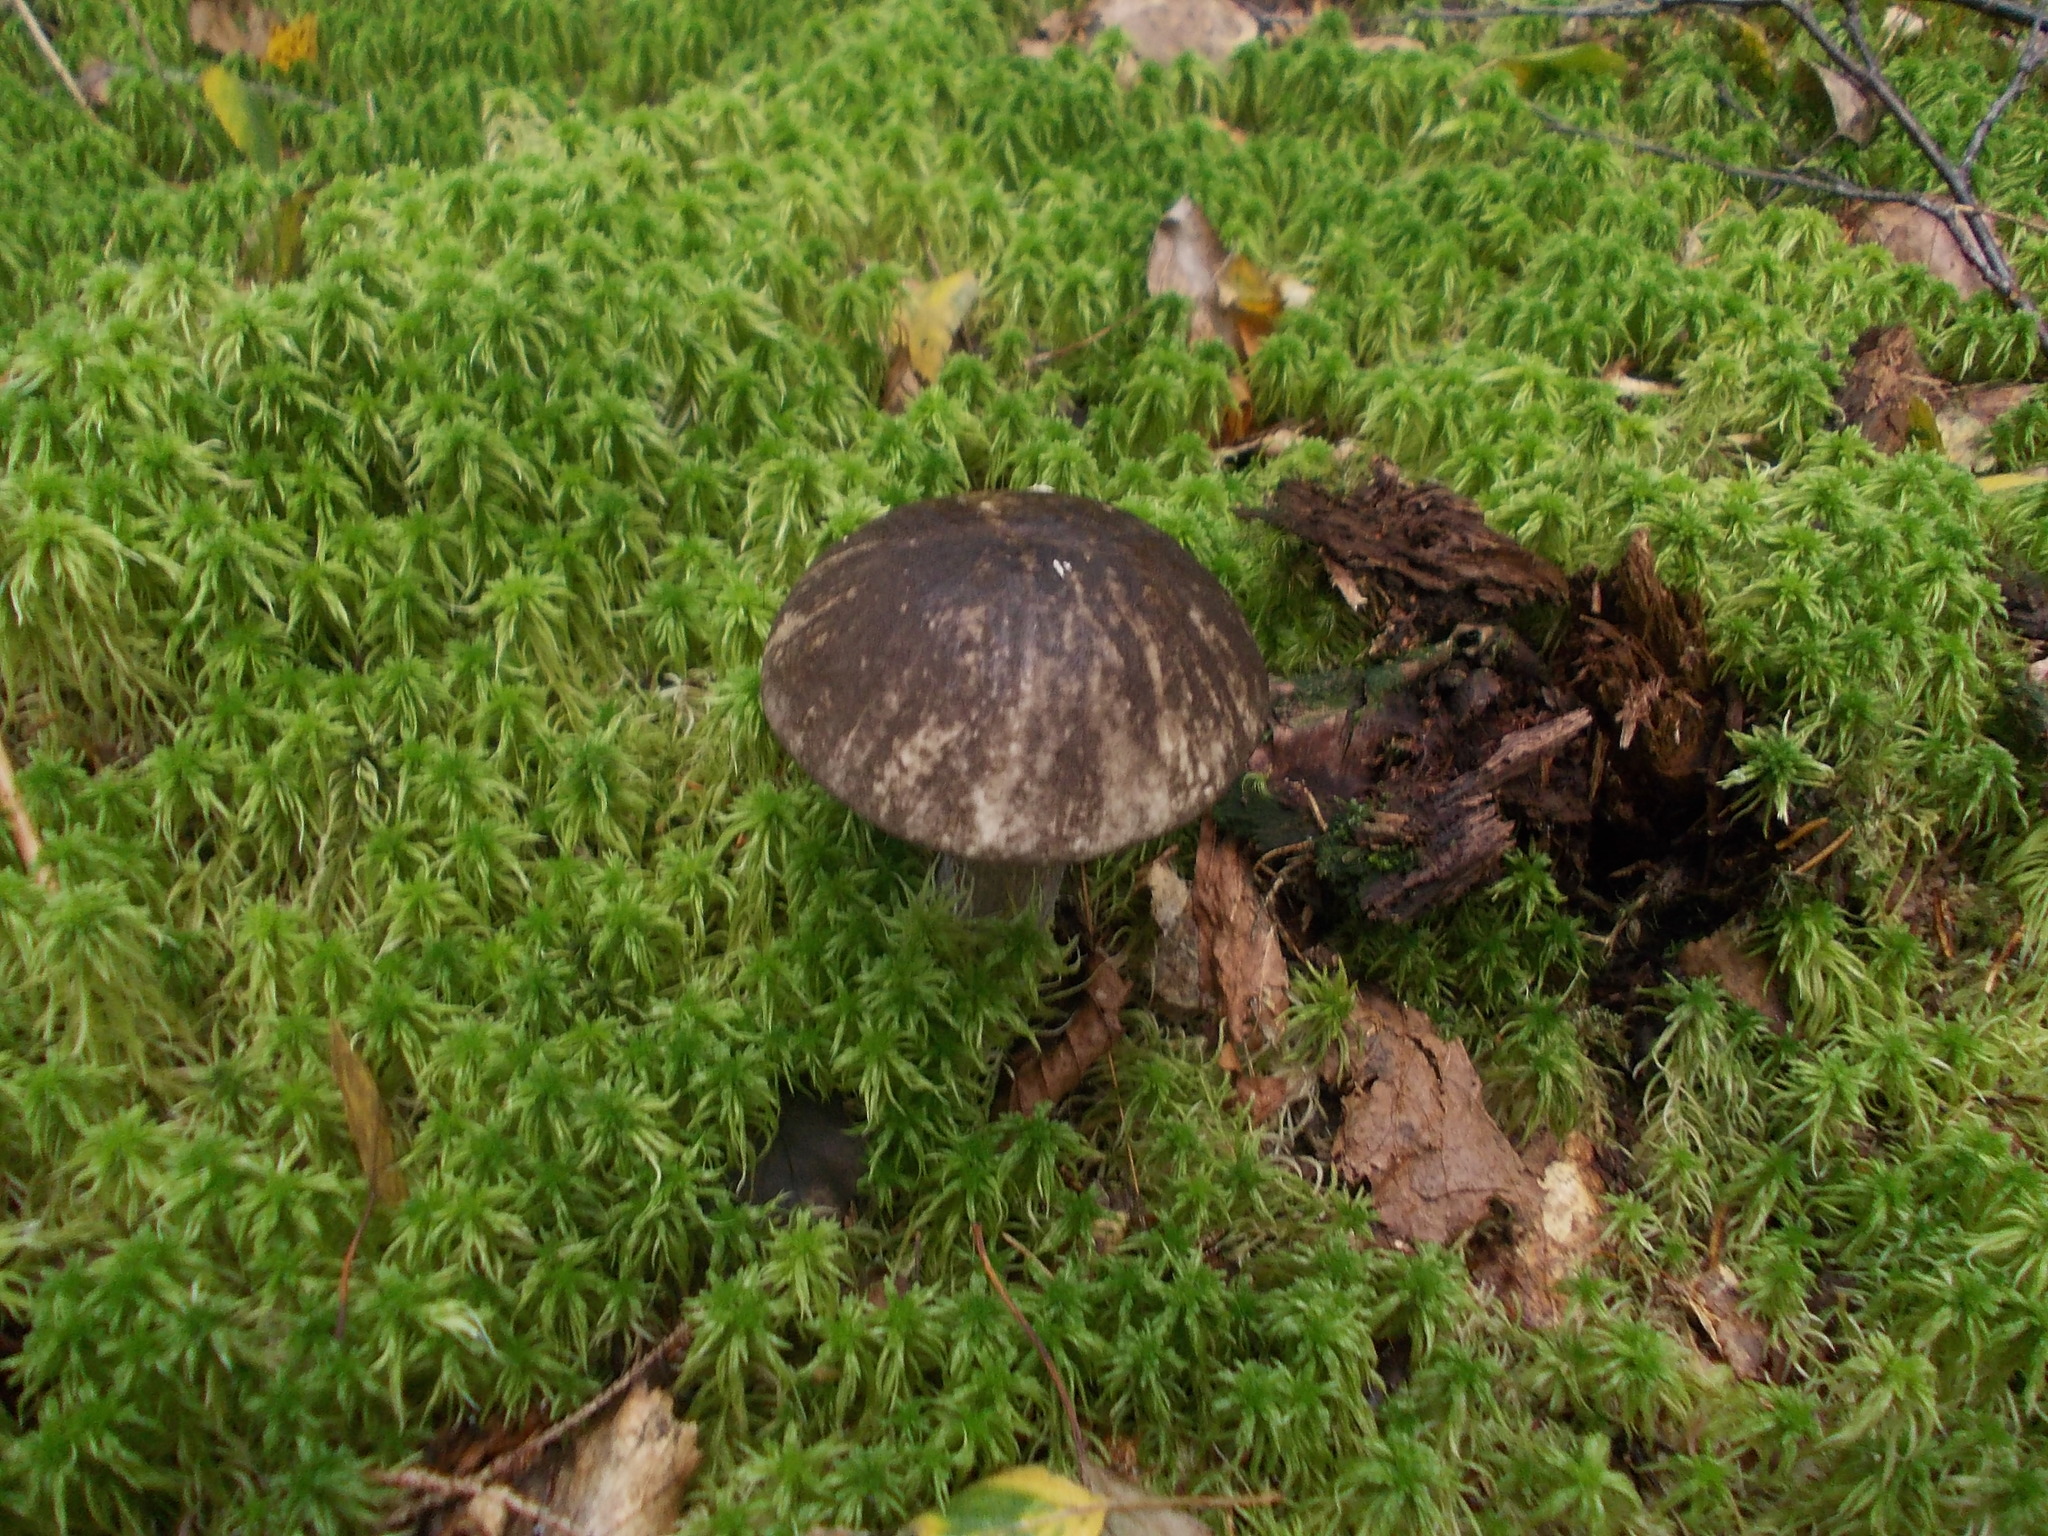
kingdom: Fungi
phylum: Basidiomycota
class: Agaricomycetes
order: Boletales
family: Boletaceae
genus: Leccinum
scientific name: Leccinum variicolor
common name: Mottled bolete
